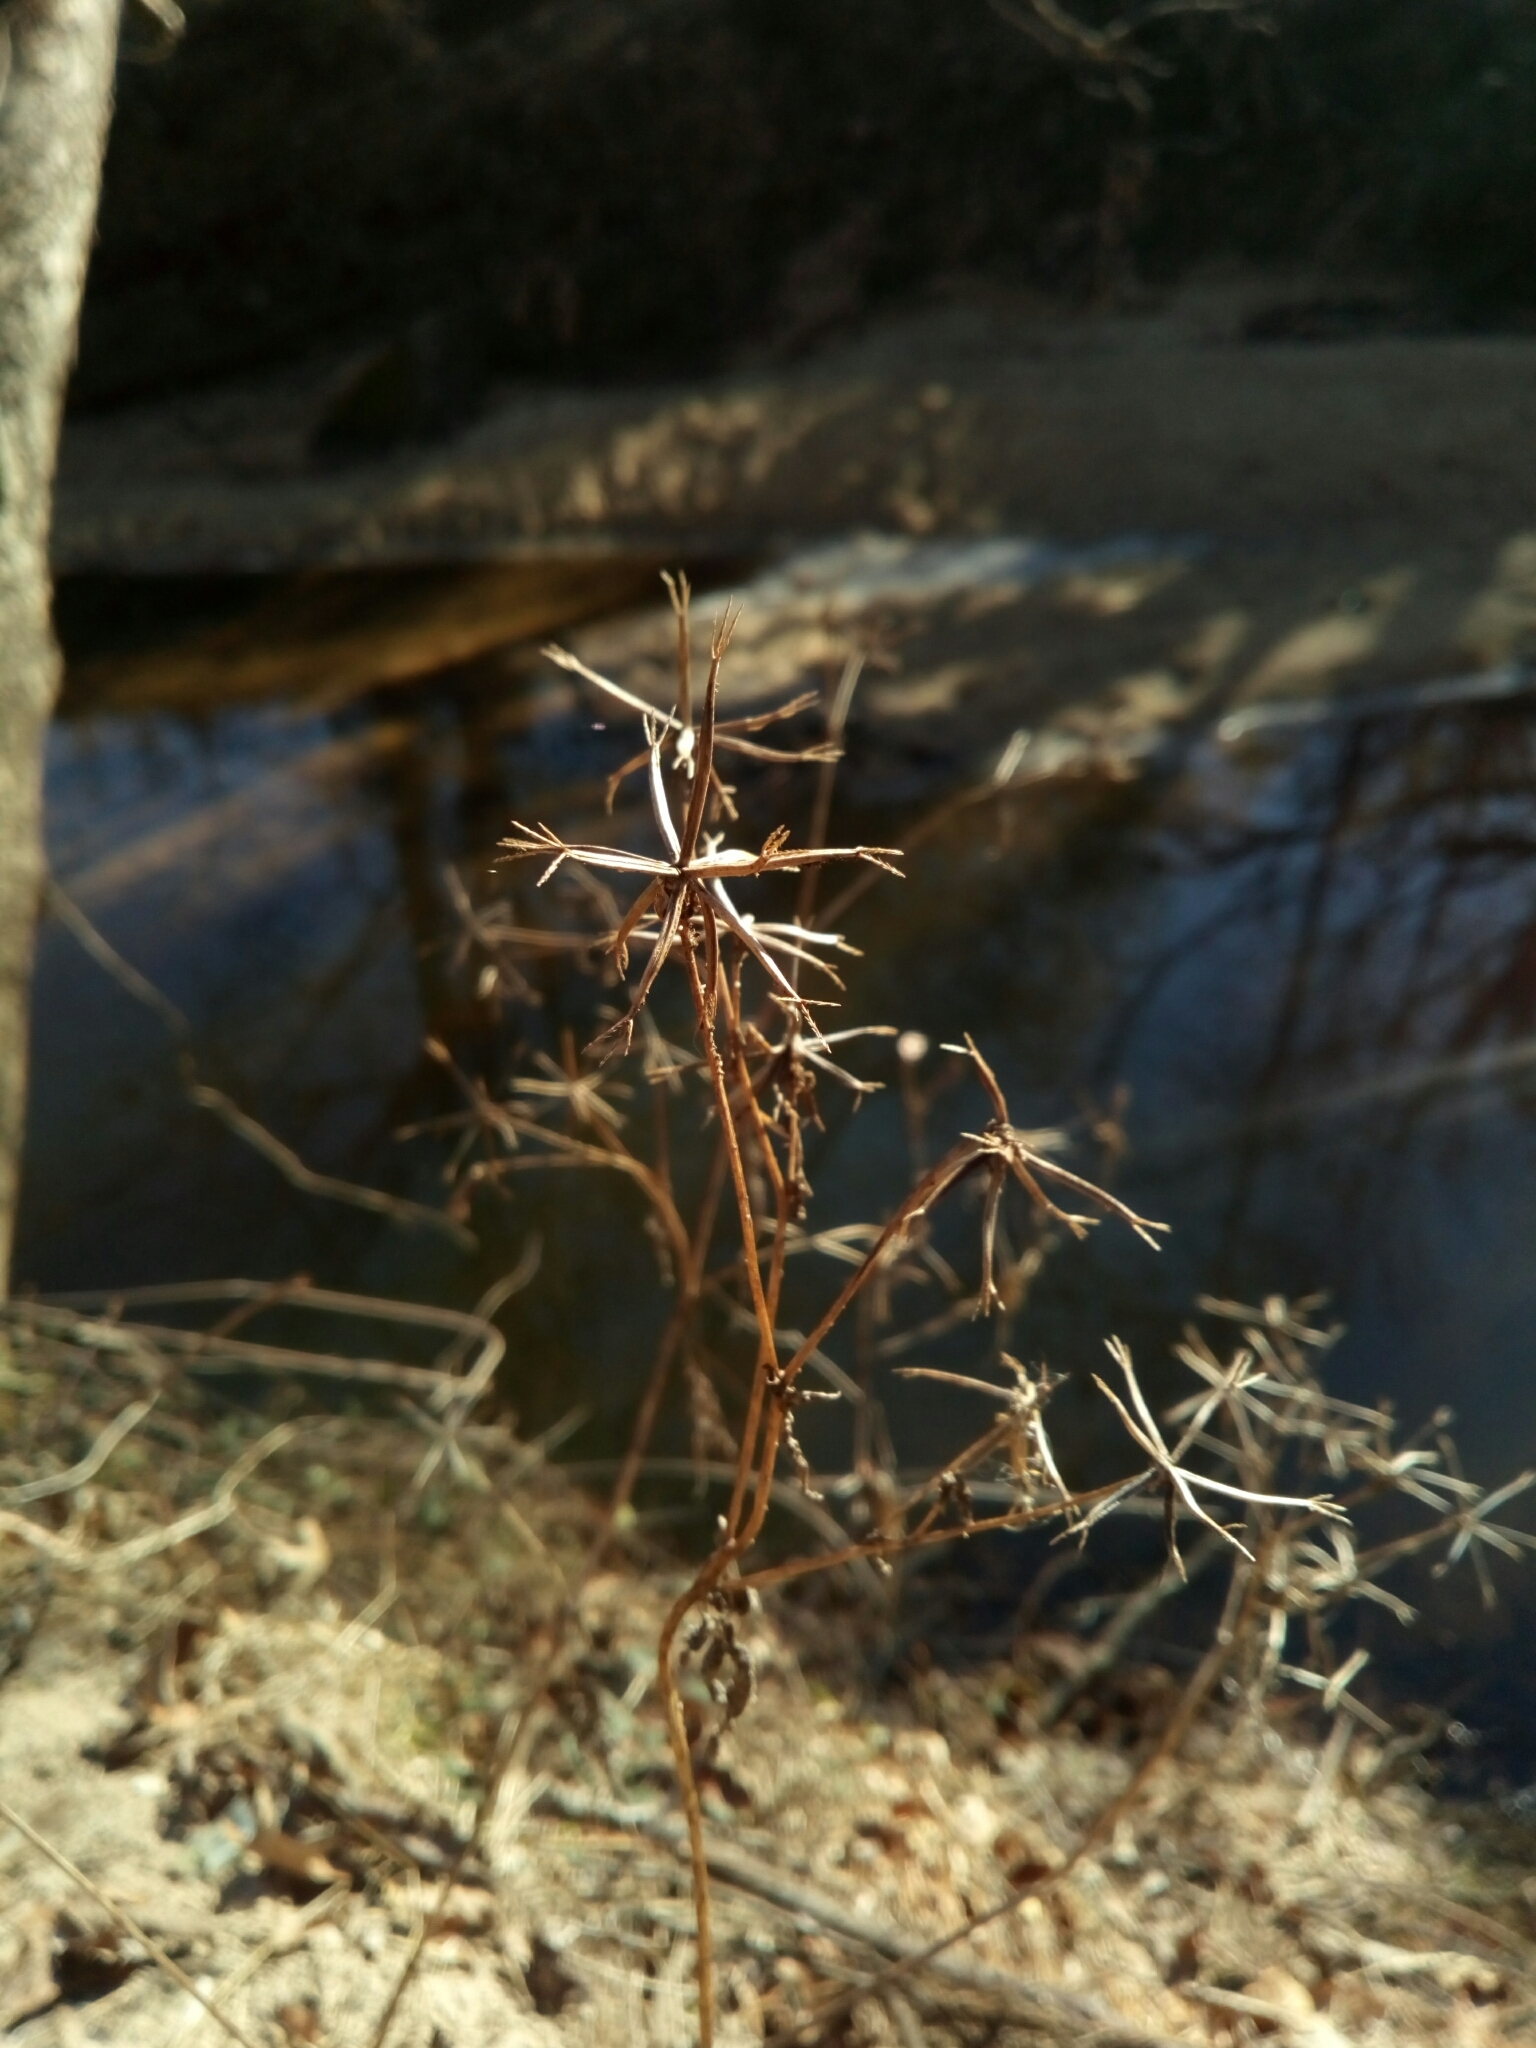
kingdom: Plantae
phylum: Tracheophyta
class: Magnoliopsida
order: Asterales
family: Asteraceae
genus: Bidens
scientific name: Bidens bipinnata
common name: Spanish-needles
